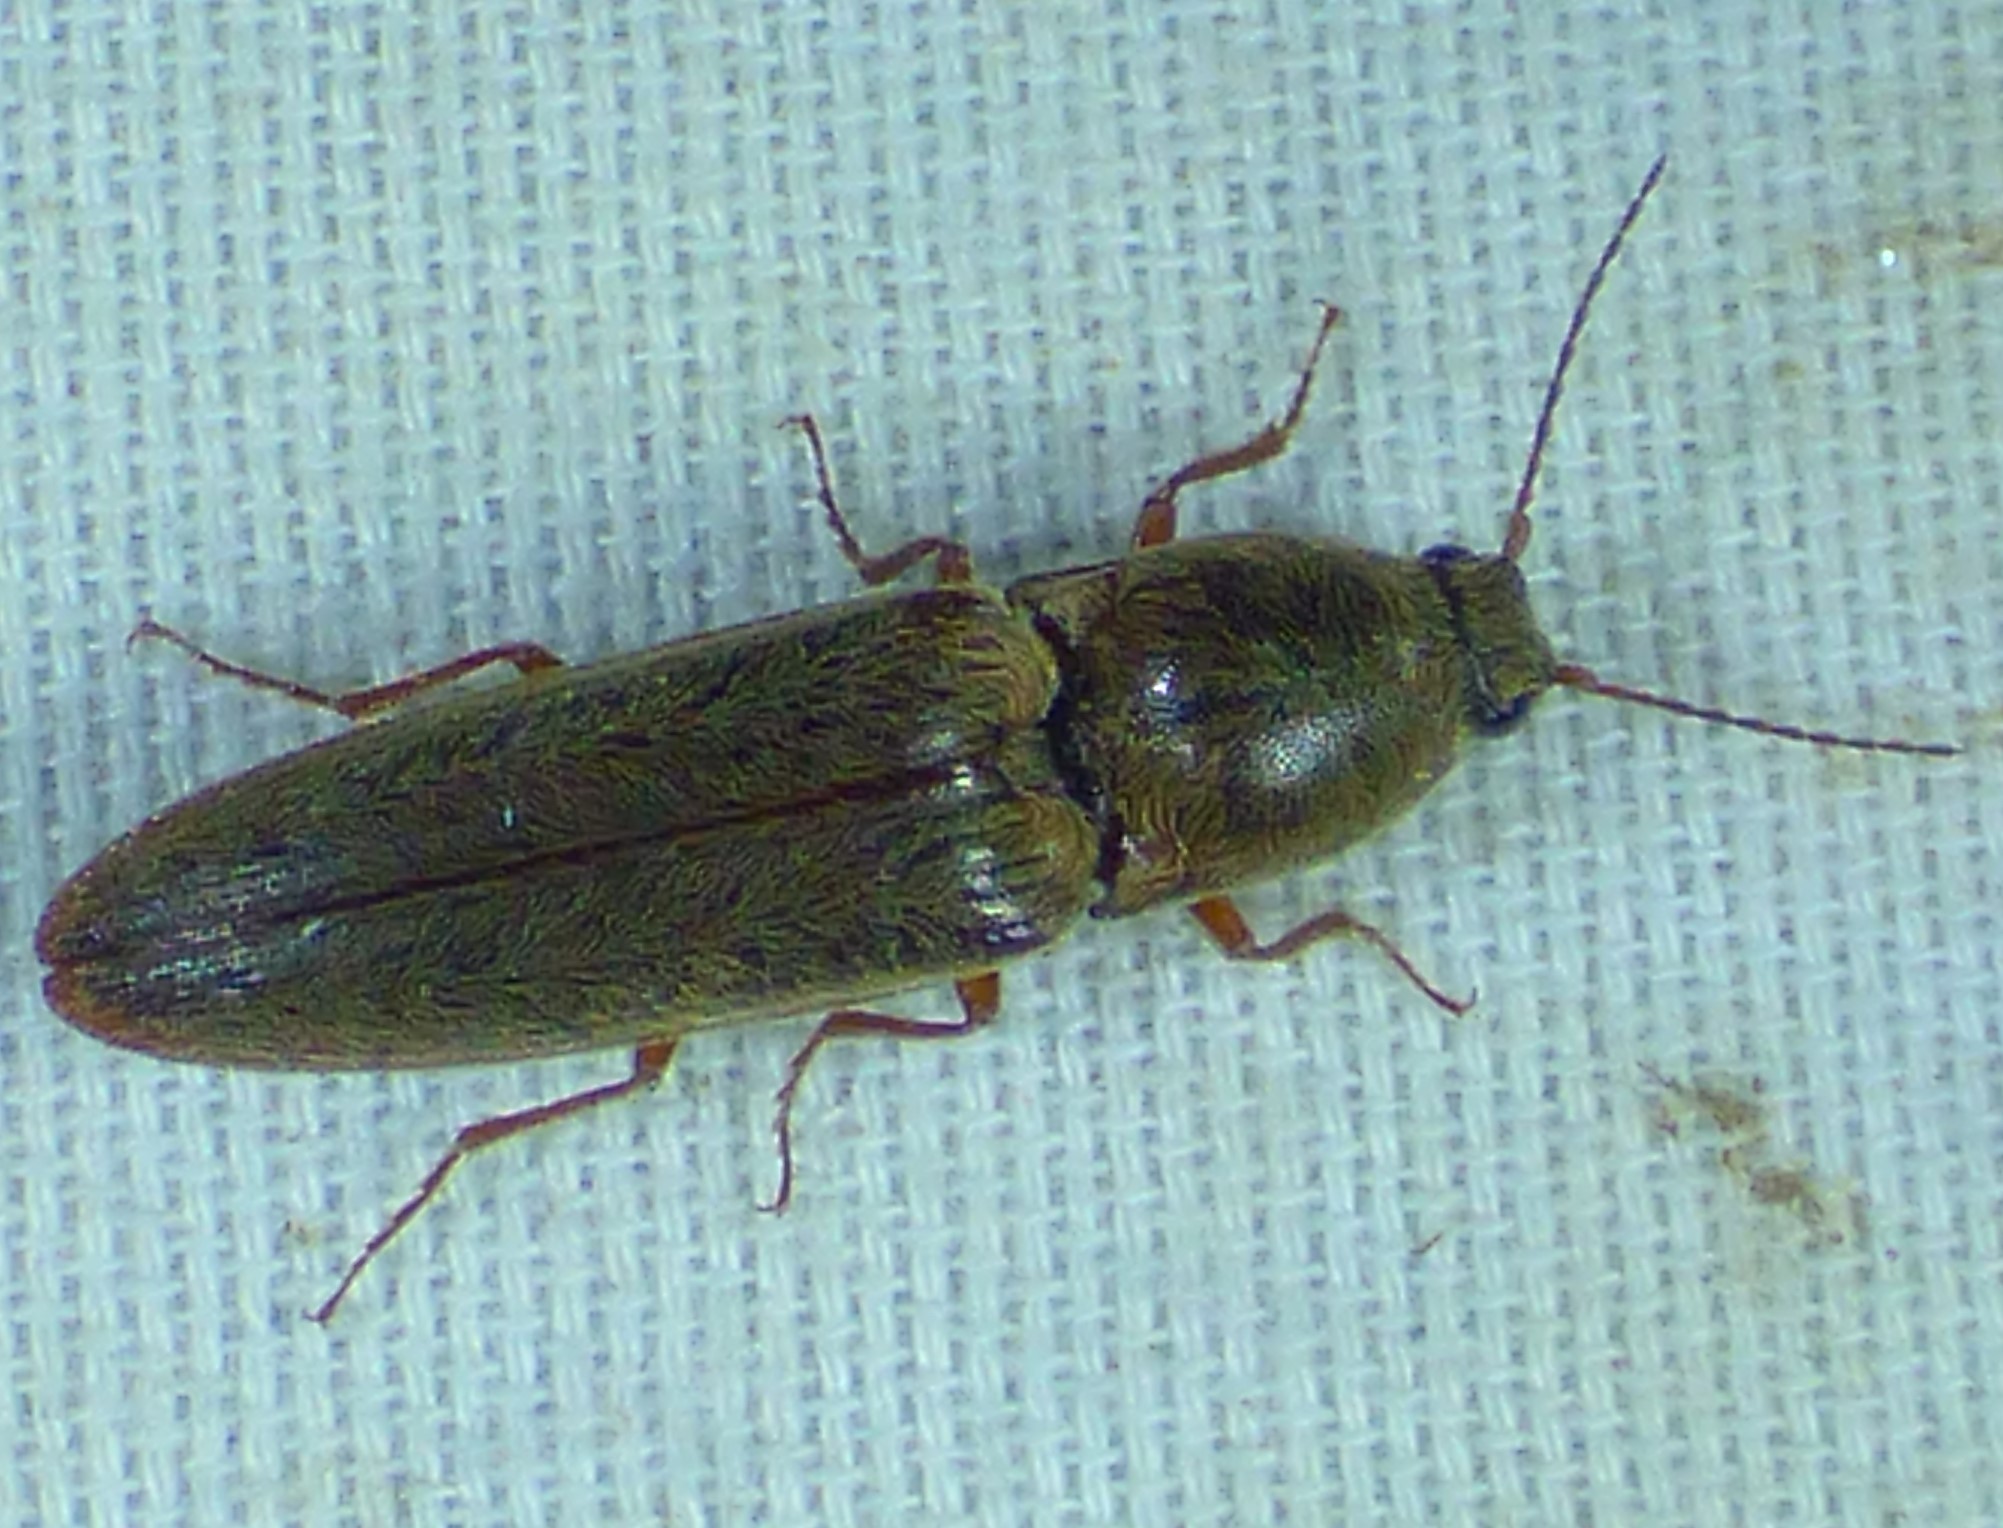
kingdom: Animalia
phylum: Arthropoda
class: Insecta
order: Coleoptera
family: Elateridae
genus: Gambrinus
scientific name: Gambrinus griseus
